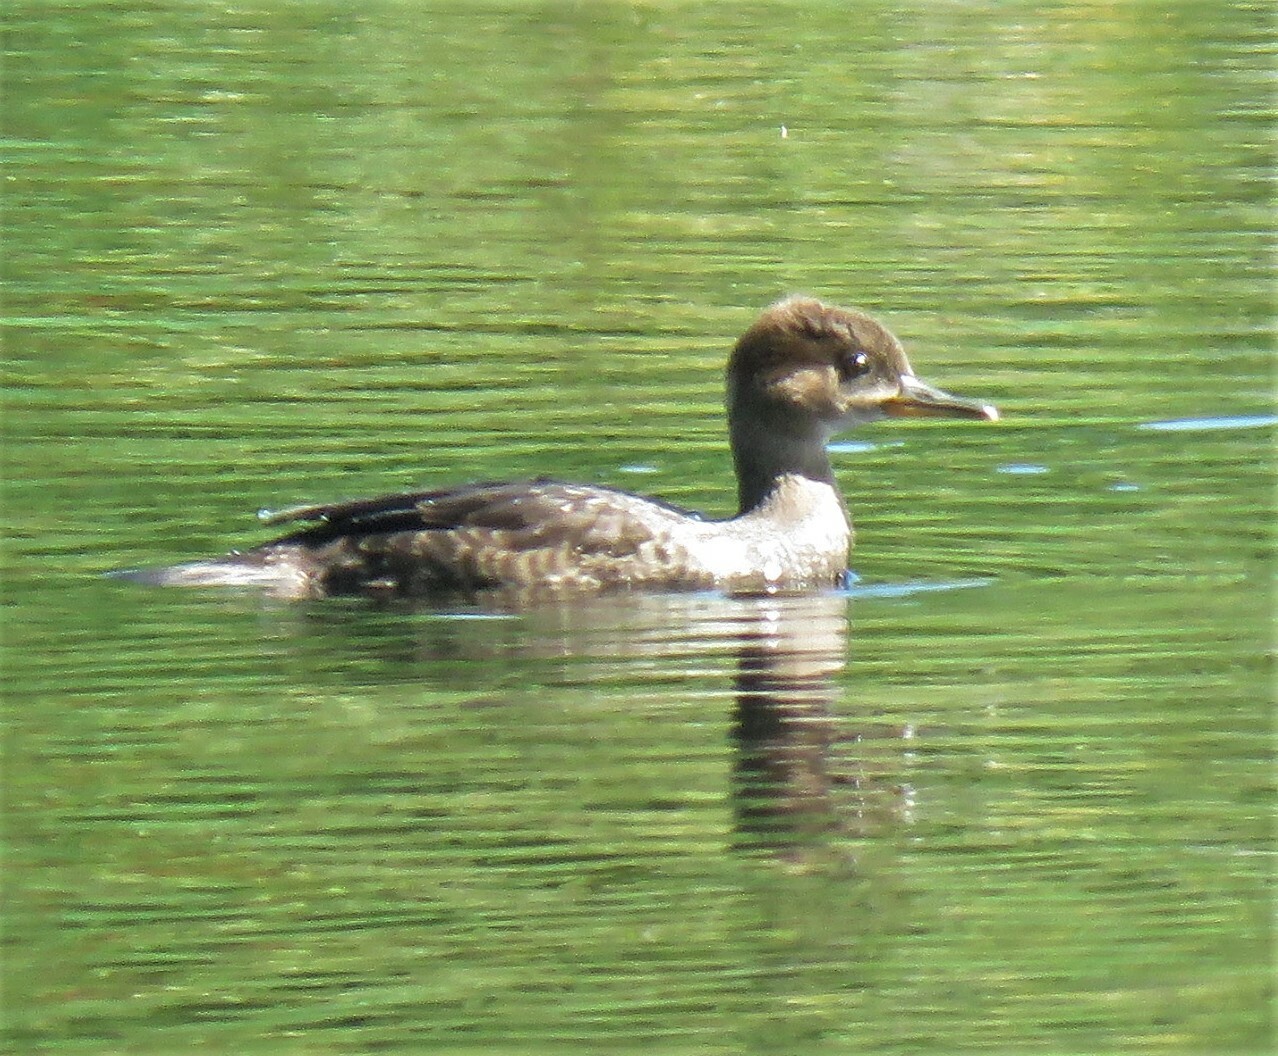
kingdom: Animalia
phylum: Chordata
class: Aves
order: Anseriformes
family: Anatidae
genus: Lophodytes
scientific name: Lophodytes cucullatus
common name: Hooded merganser
